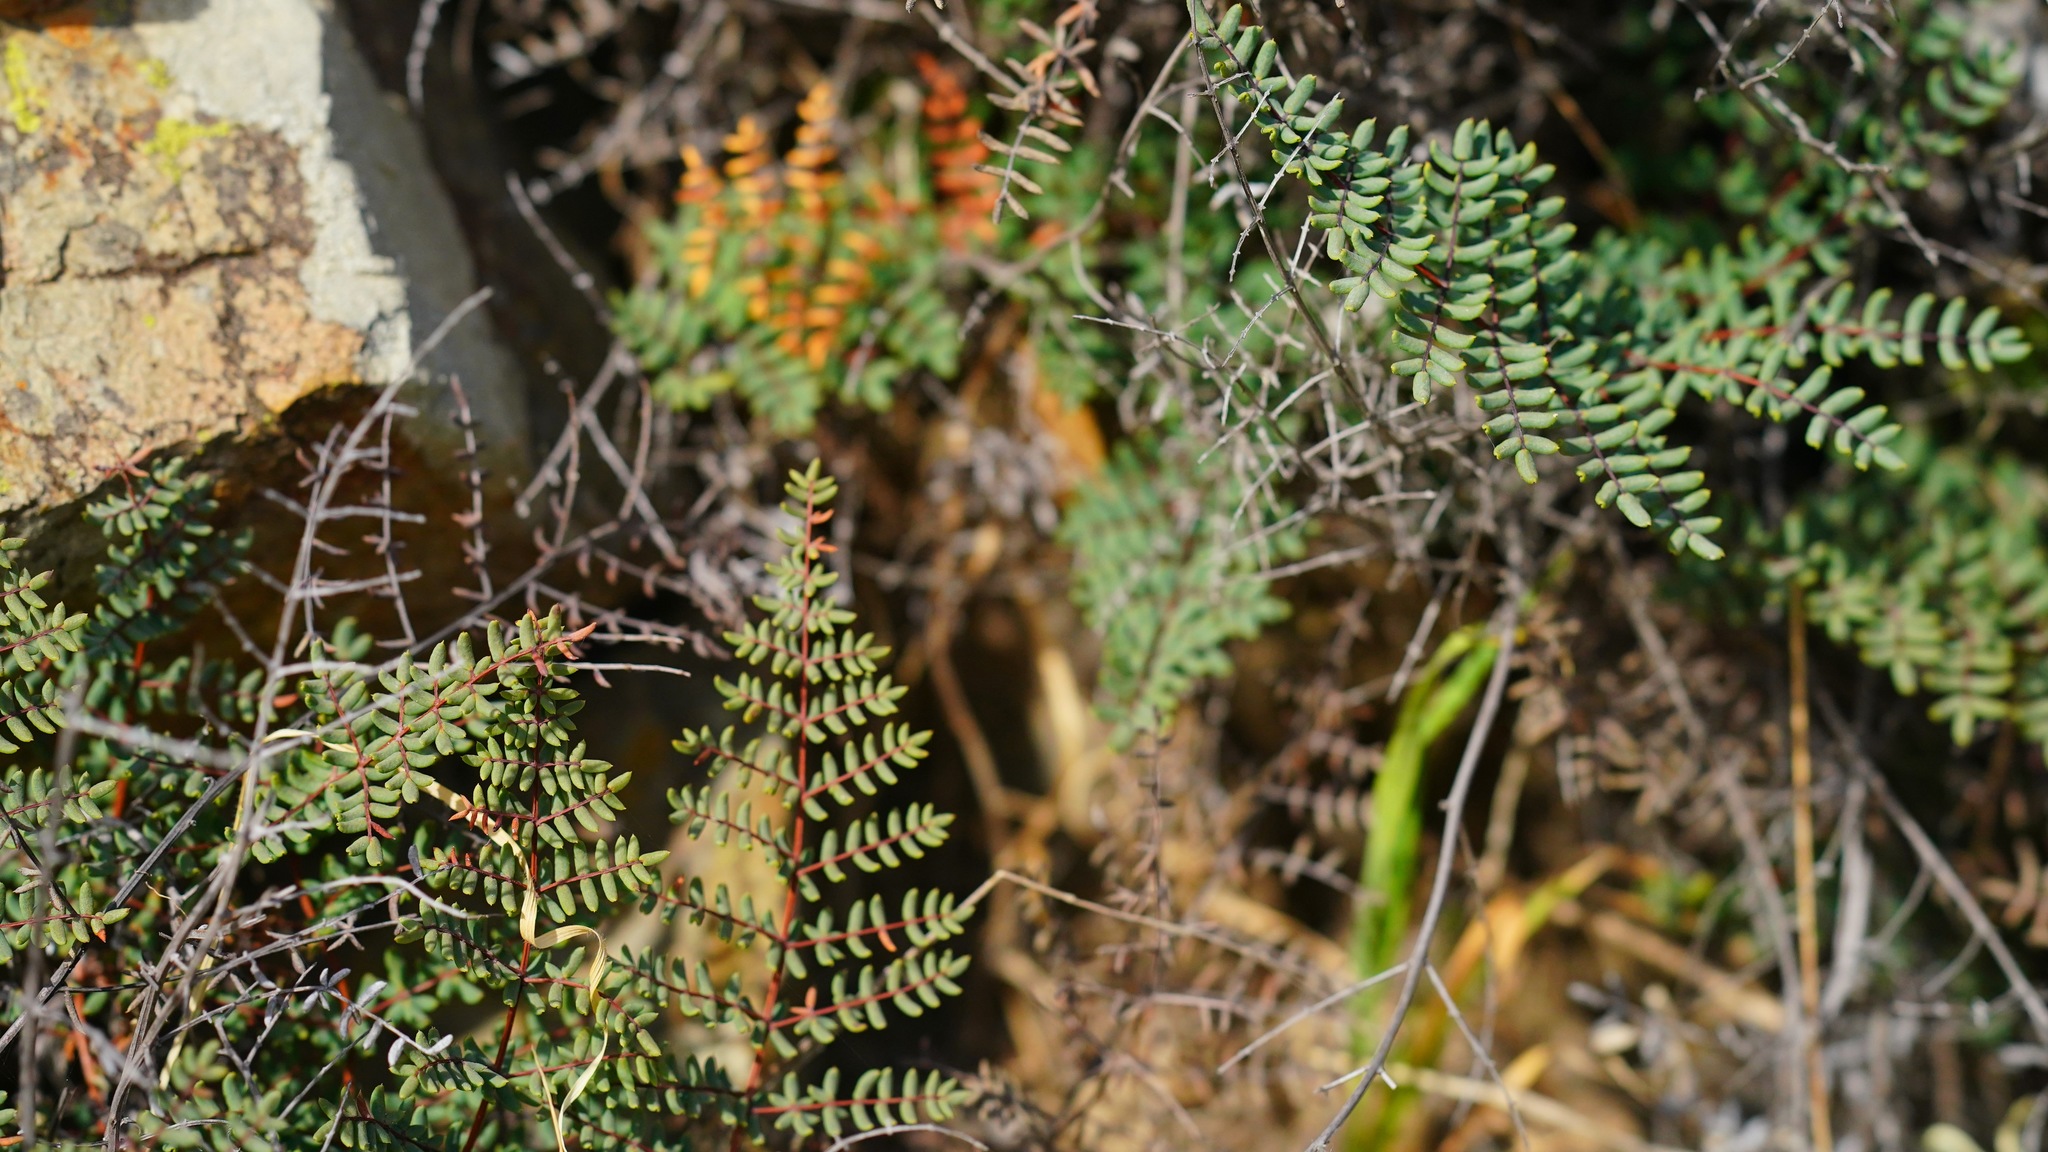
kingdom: Plantae
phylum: Tracheophyta
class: Polypodiopsida
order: Polypodiales
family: Pteridaceae
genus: Pellaea
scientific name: Pellaea mucronata
